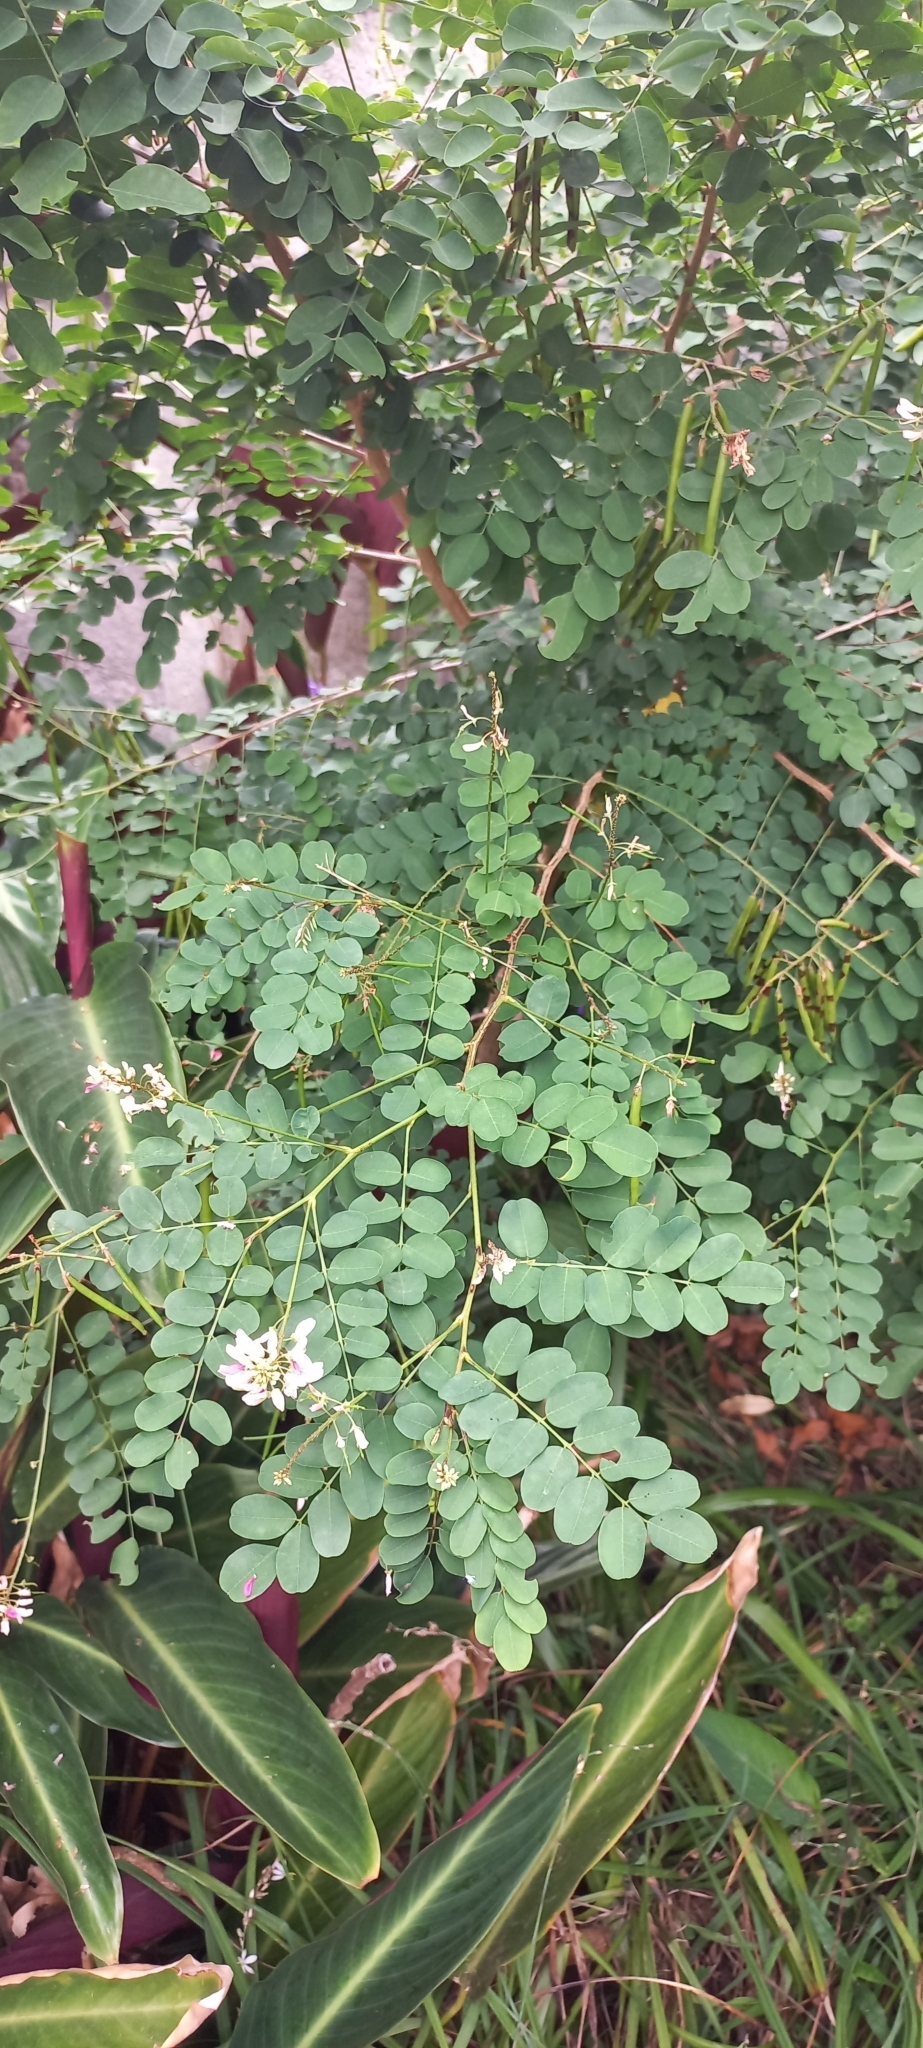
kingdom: Plantae
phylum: Tracheophyta
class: Magnoliopsida
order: Fabales
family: Fabaceae
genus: Indigofera
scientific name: Indigofera jucunda
